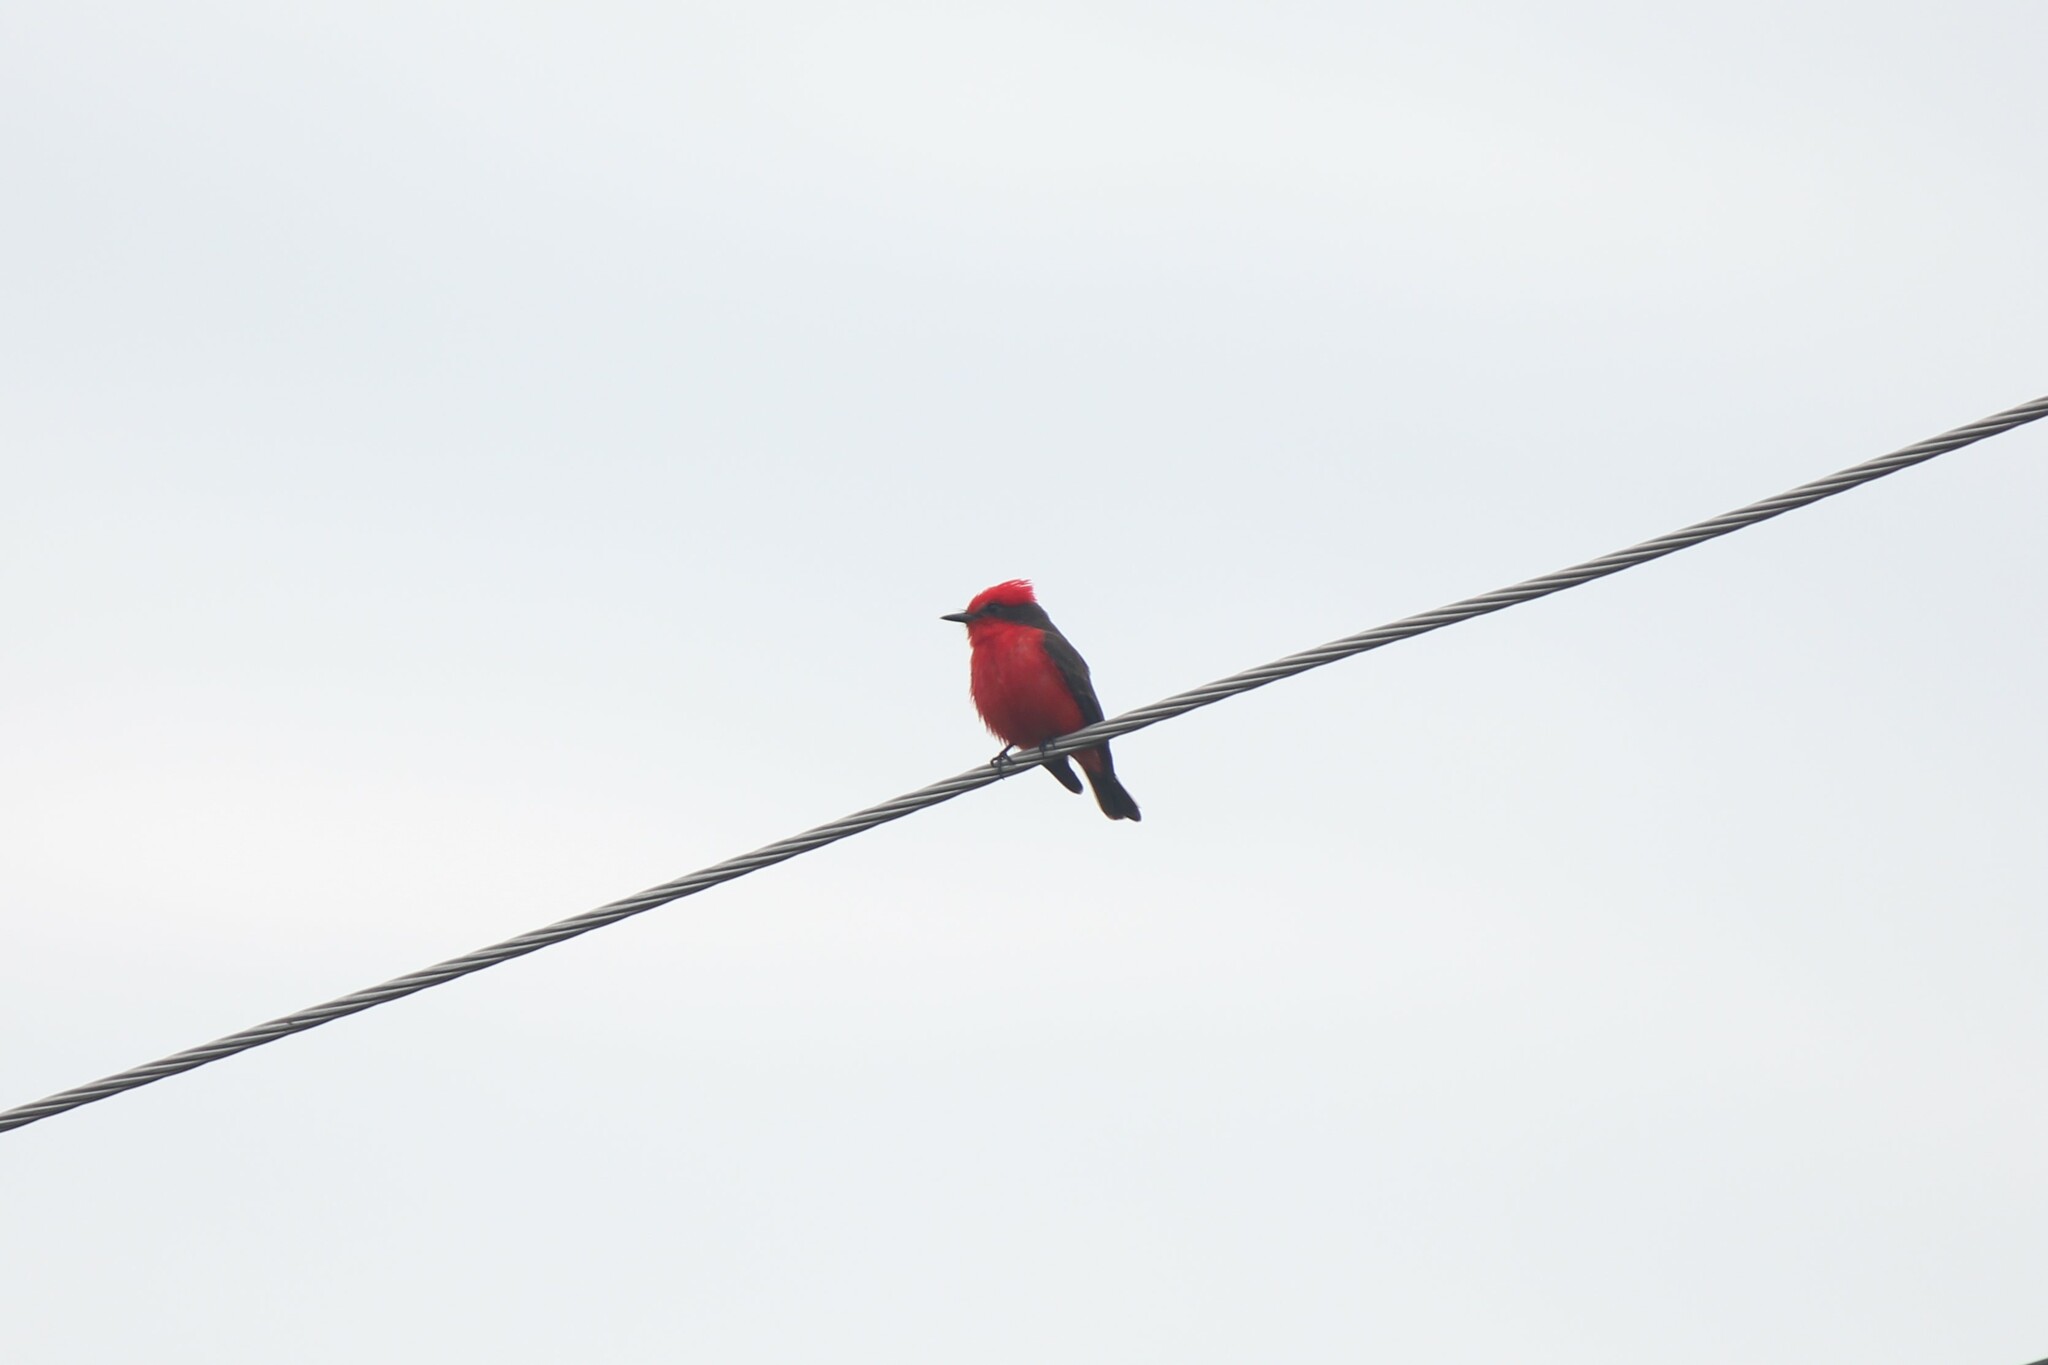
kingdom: Animalia
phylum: Chordata
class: Aves
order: Passeriformes
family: Tyrannidae
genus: Pyrocephalus
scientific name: Pyrocephalus rubinus
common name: Vermilion flycatcher
